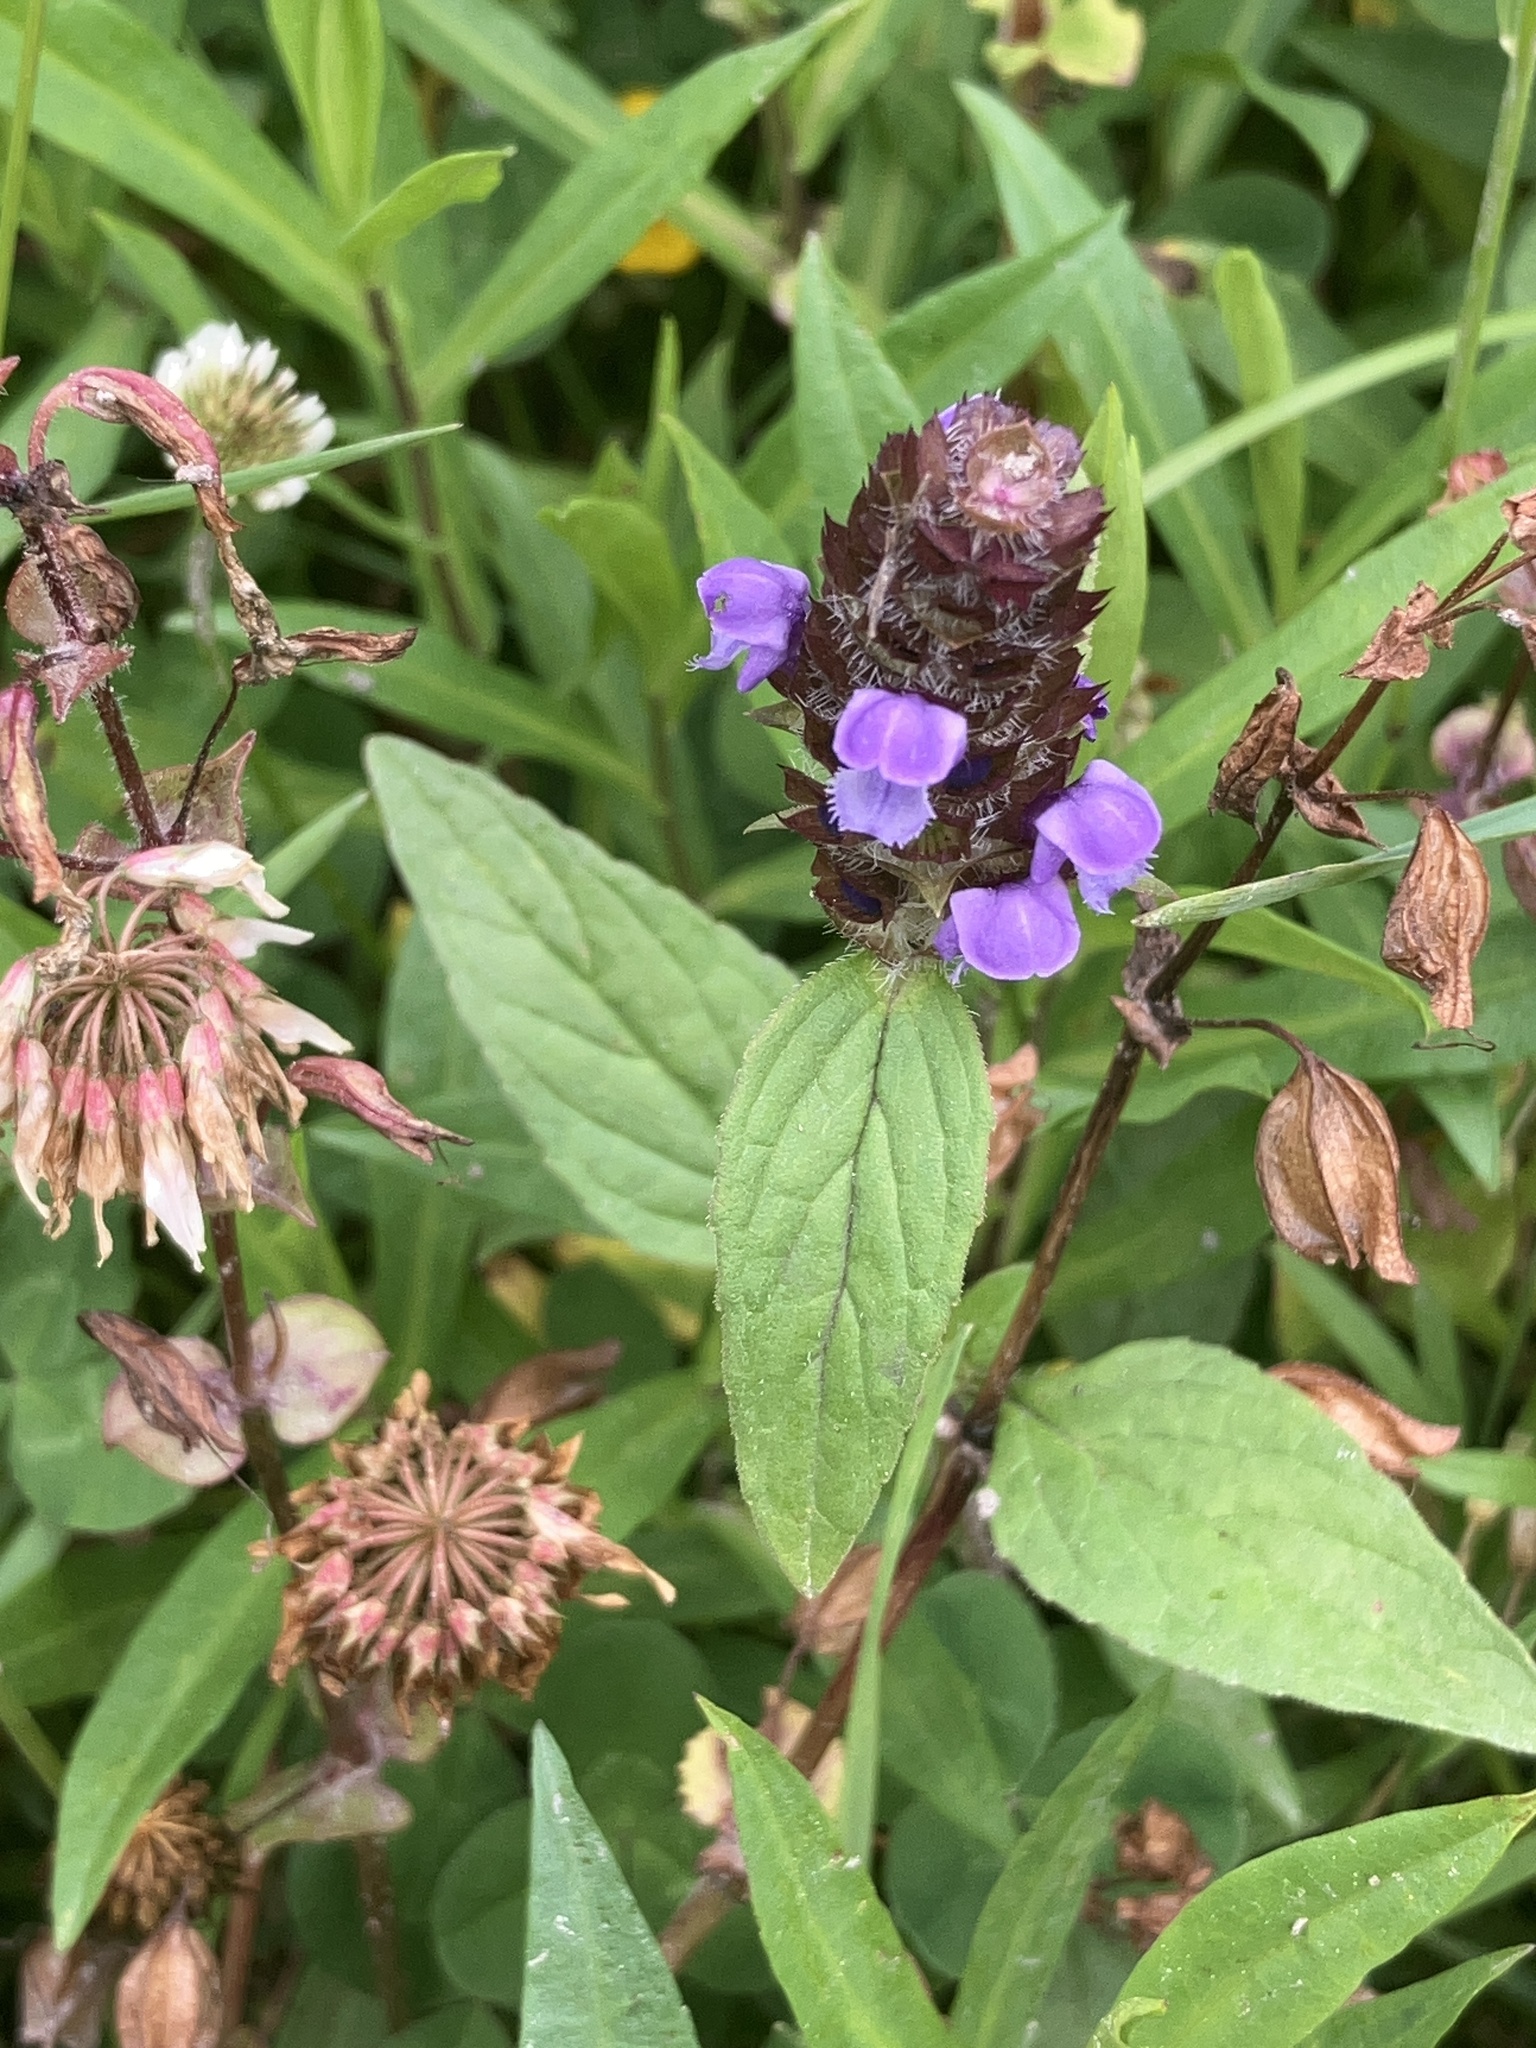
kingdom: Plantae
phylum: Tracheophyta
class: Magnoliopsida
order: Lamiales
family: Lamiaceae
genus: Prunella
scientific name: Prunella vulgaris
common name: Heal-all
